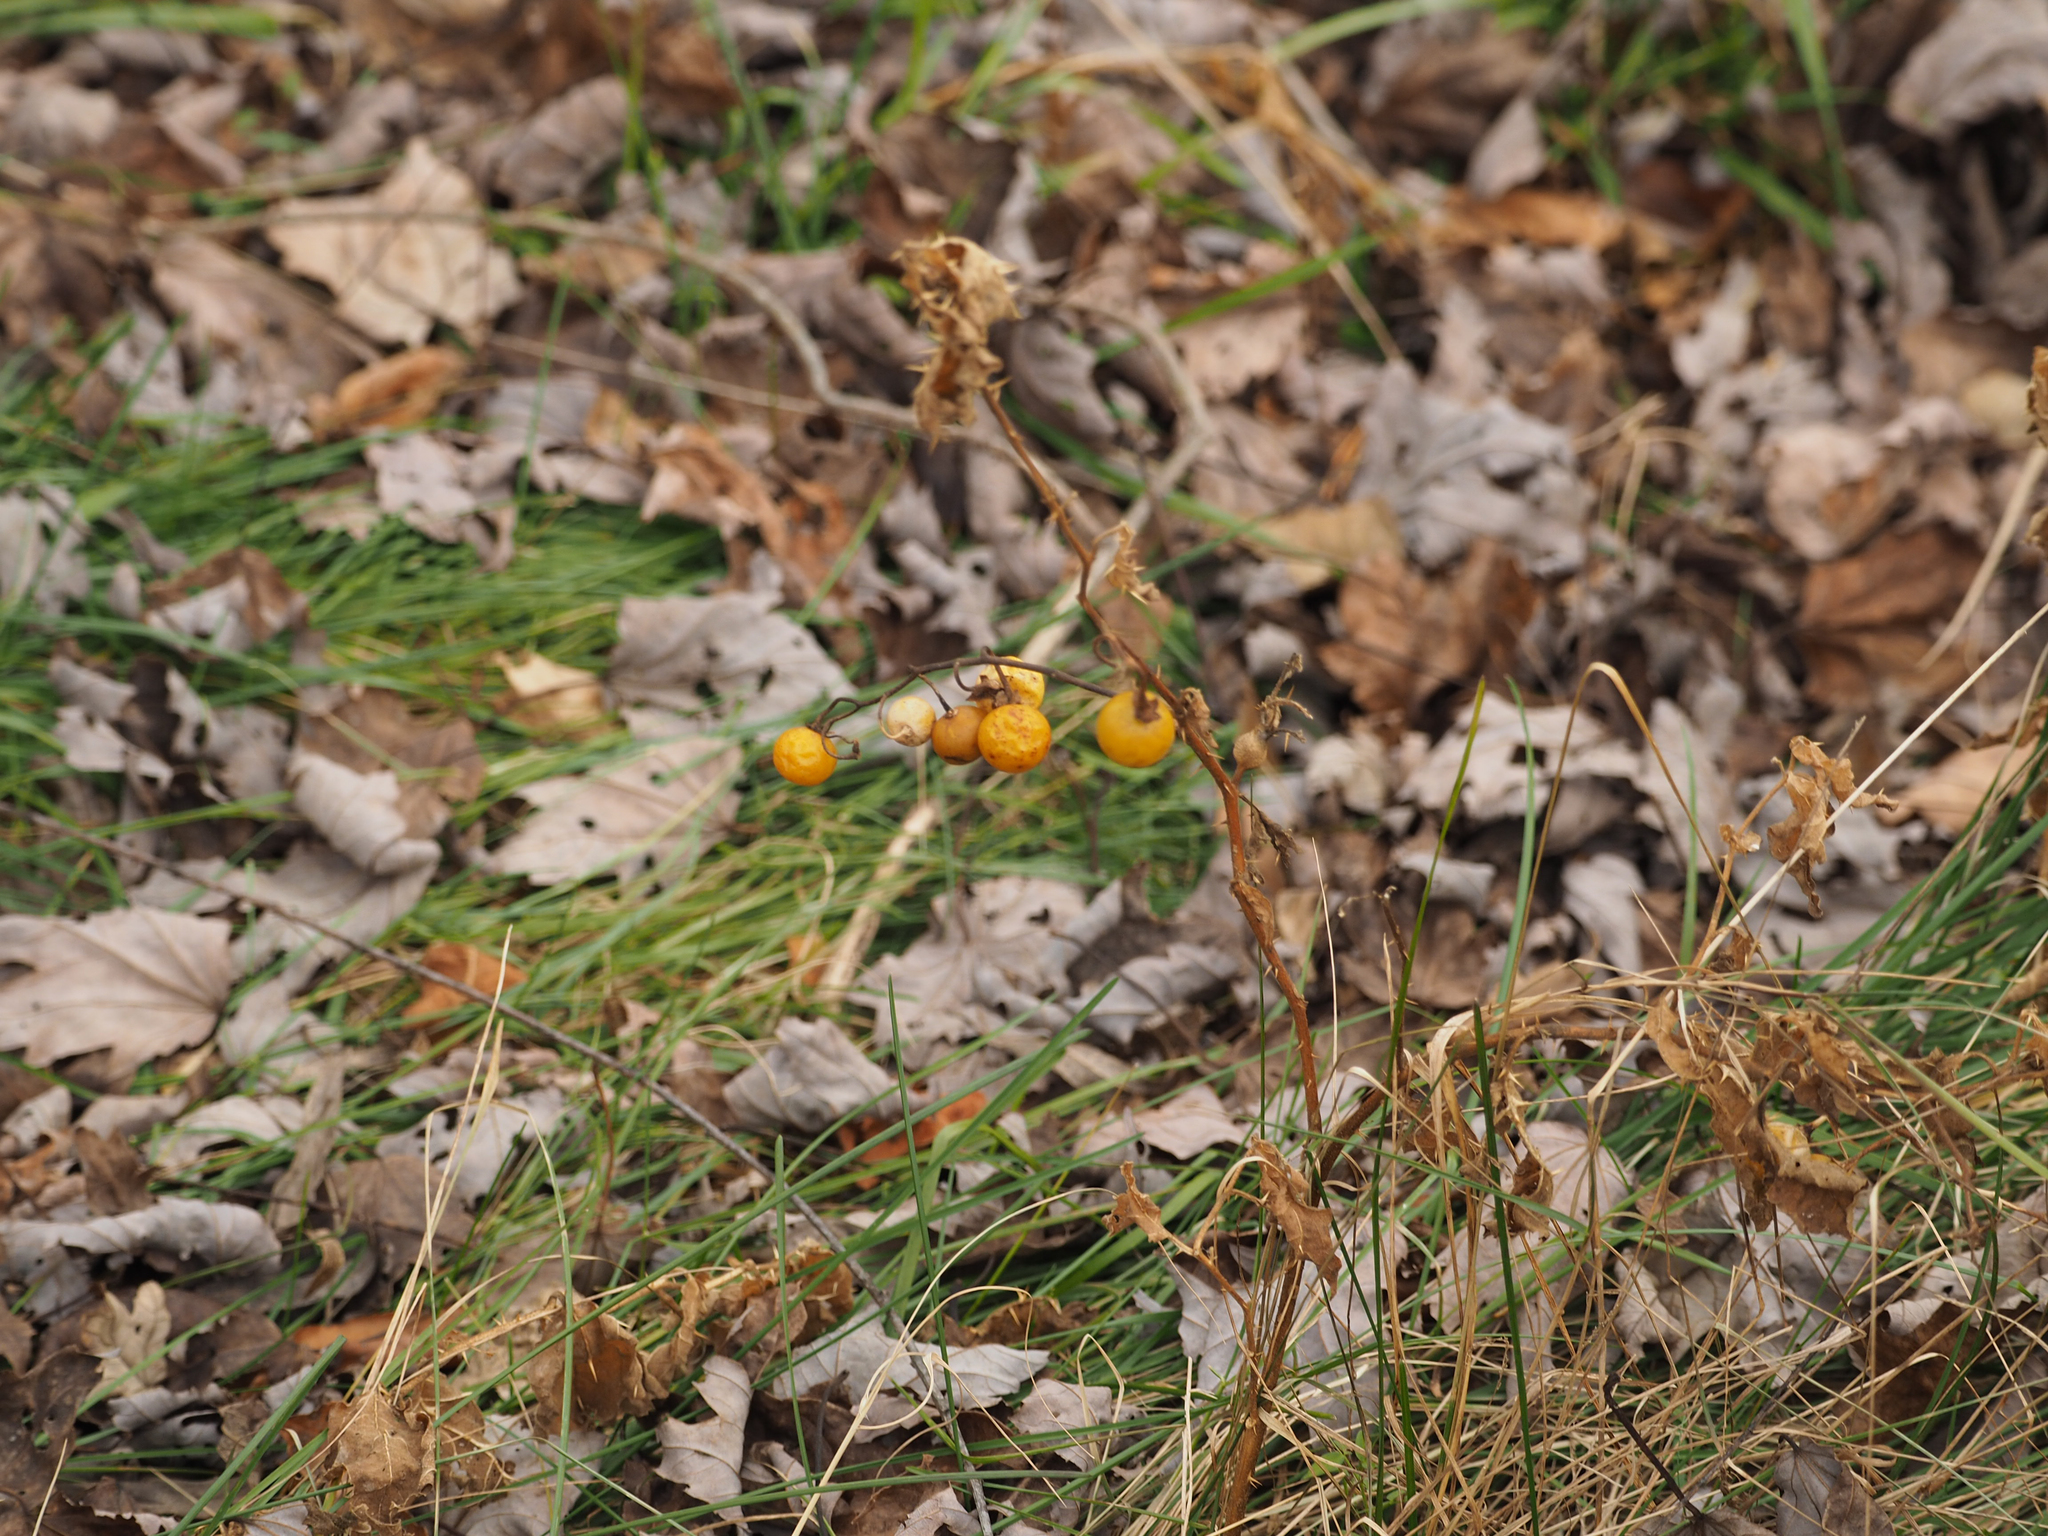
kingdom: Plantae
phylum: Tracheophyta
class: Magnoliopsida
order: Solanales
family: Solanaceae
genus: Solanum
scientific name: Solanum carolinense
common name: Horse-nettle
